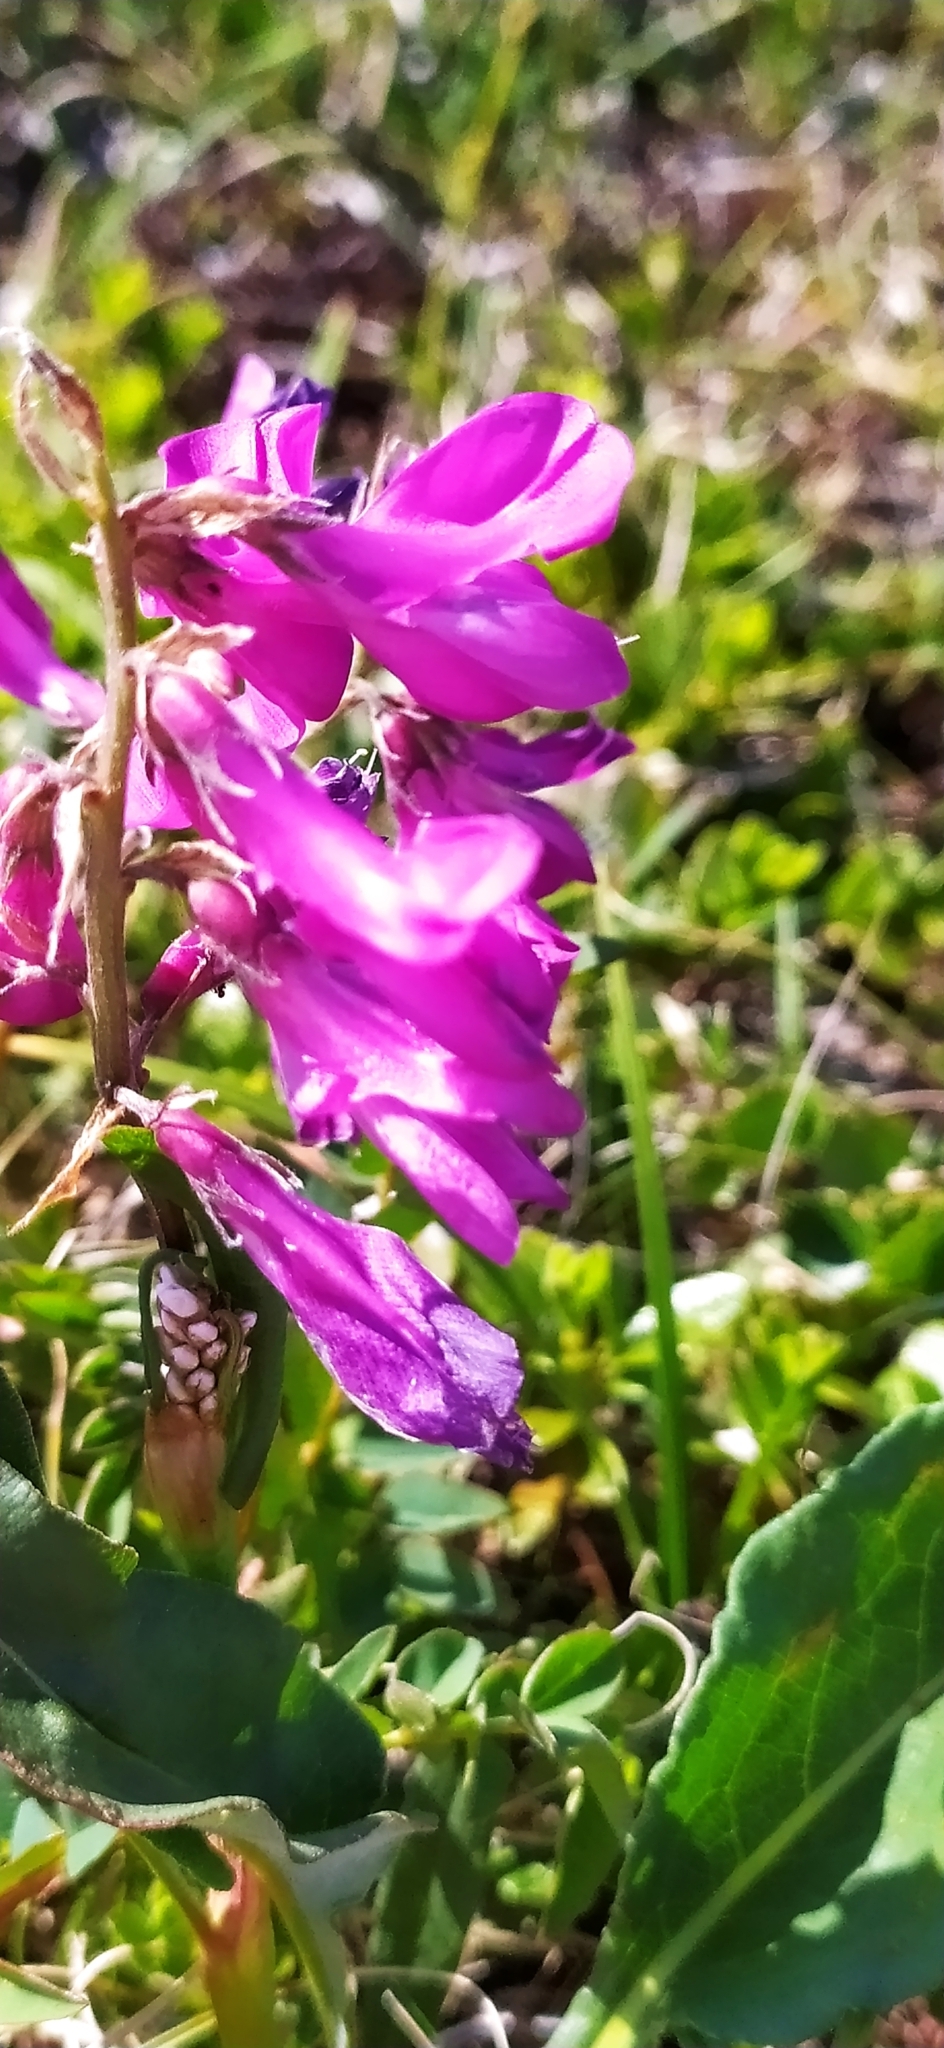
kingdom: Plantae
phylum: Tracheophyta
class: Magnoliopsida
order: Fabales
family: Fabaceae
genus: Hedysarum
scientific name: Hedysarum hedysaroides
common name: Alpine french-honeysuckle
